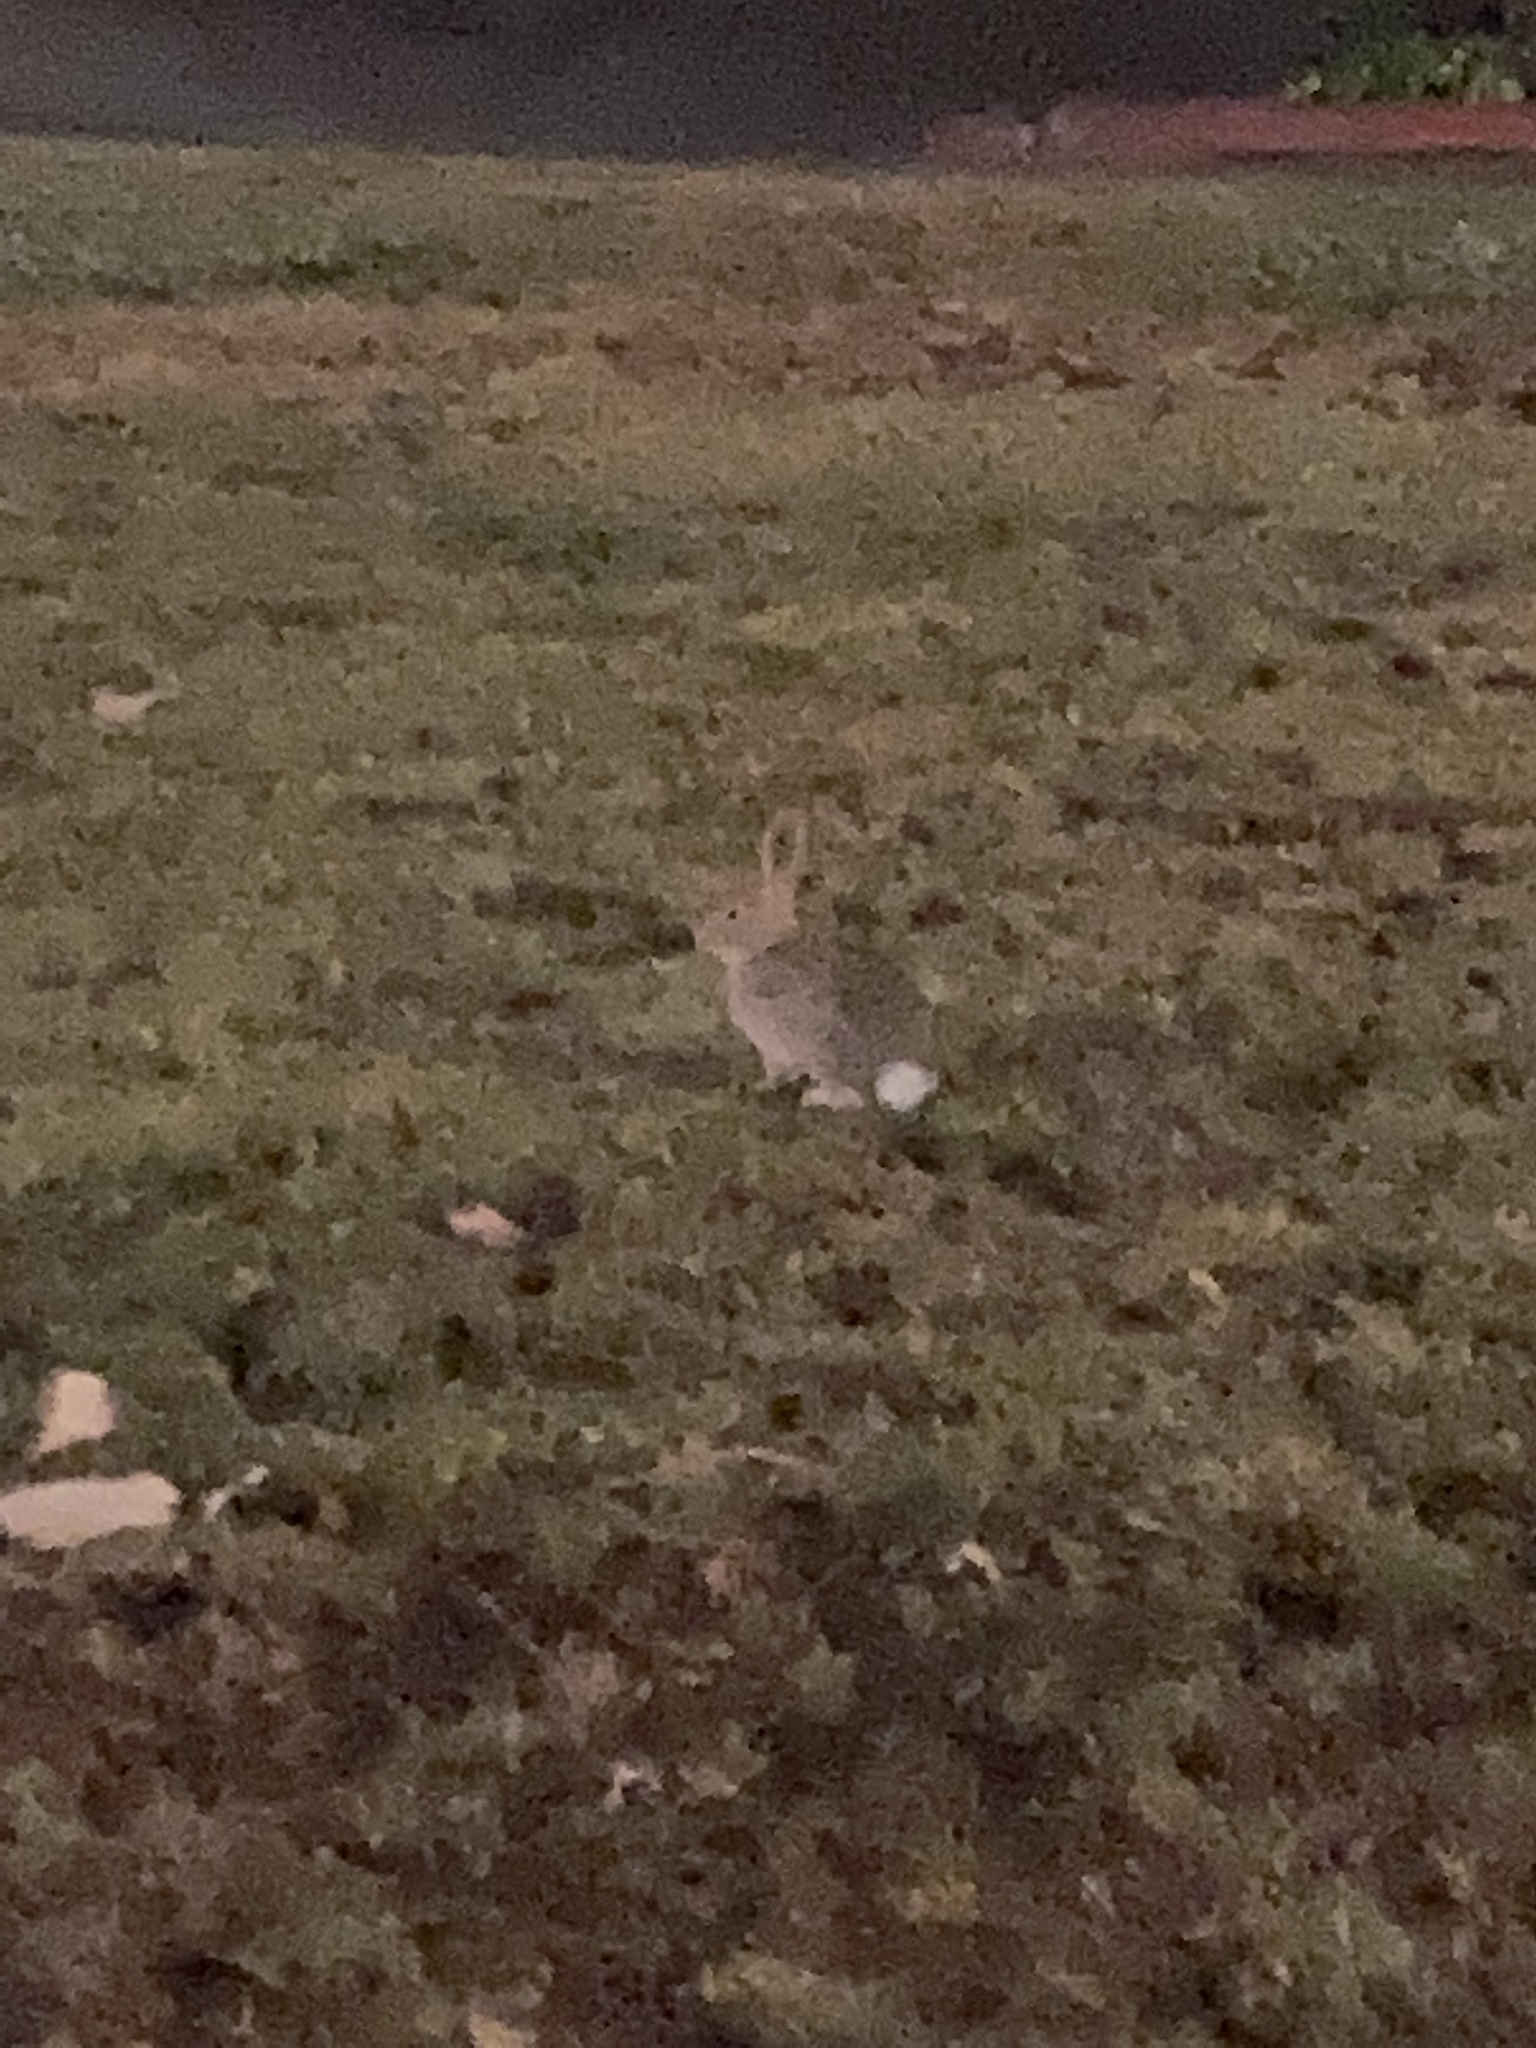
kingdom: Animalia
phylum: Chordata
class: Mammalia
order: Lagomorpha
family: Leporidae
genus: Sylvilagus
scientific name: Sylvilagus audubonii
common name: Desert cottontail
